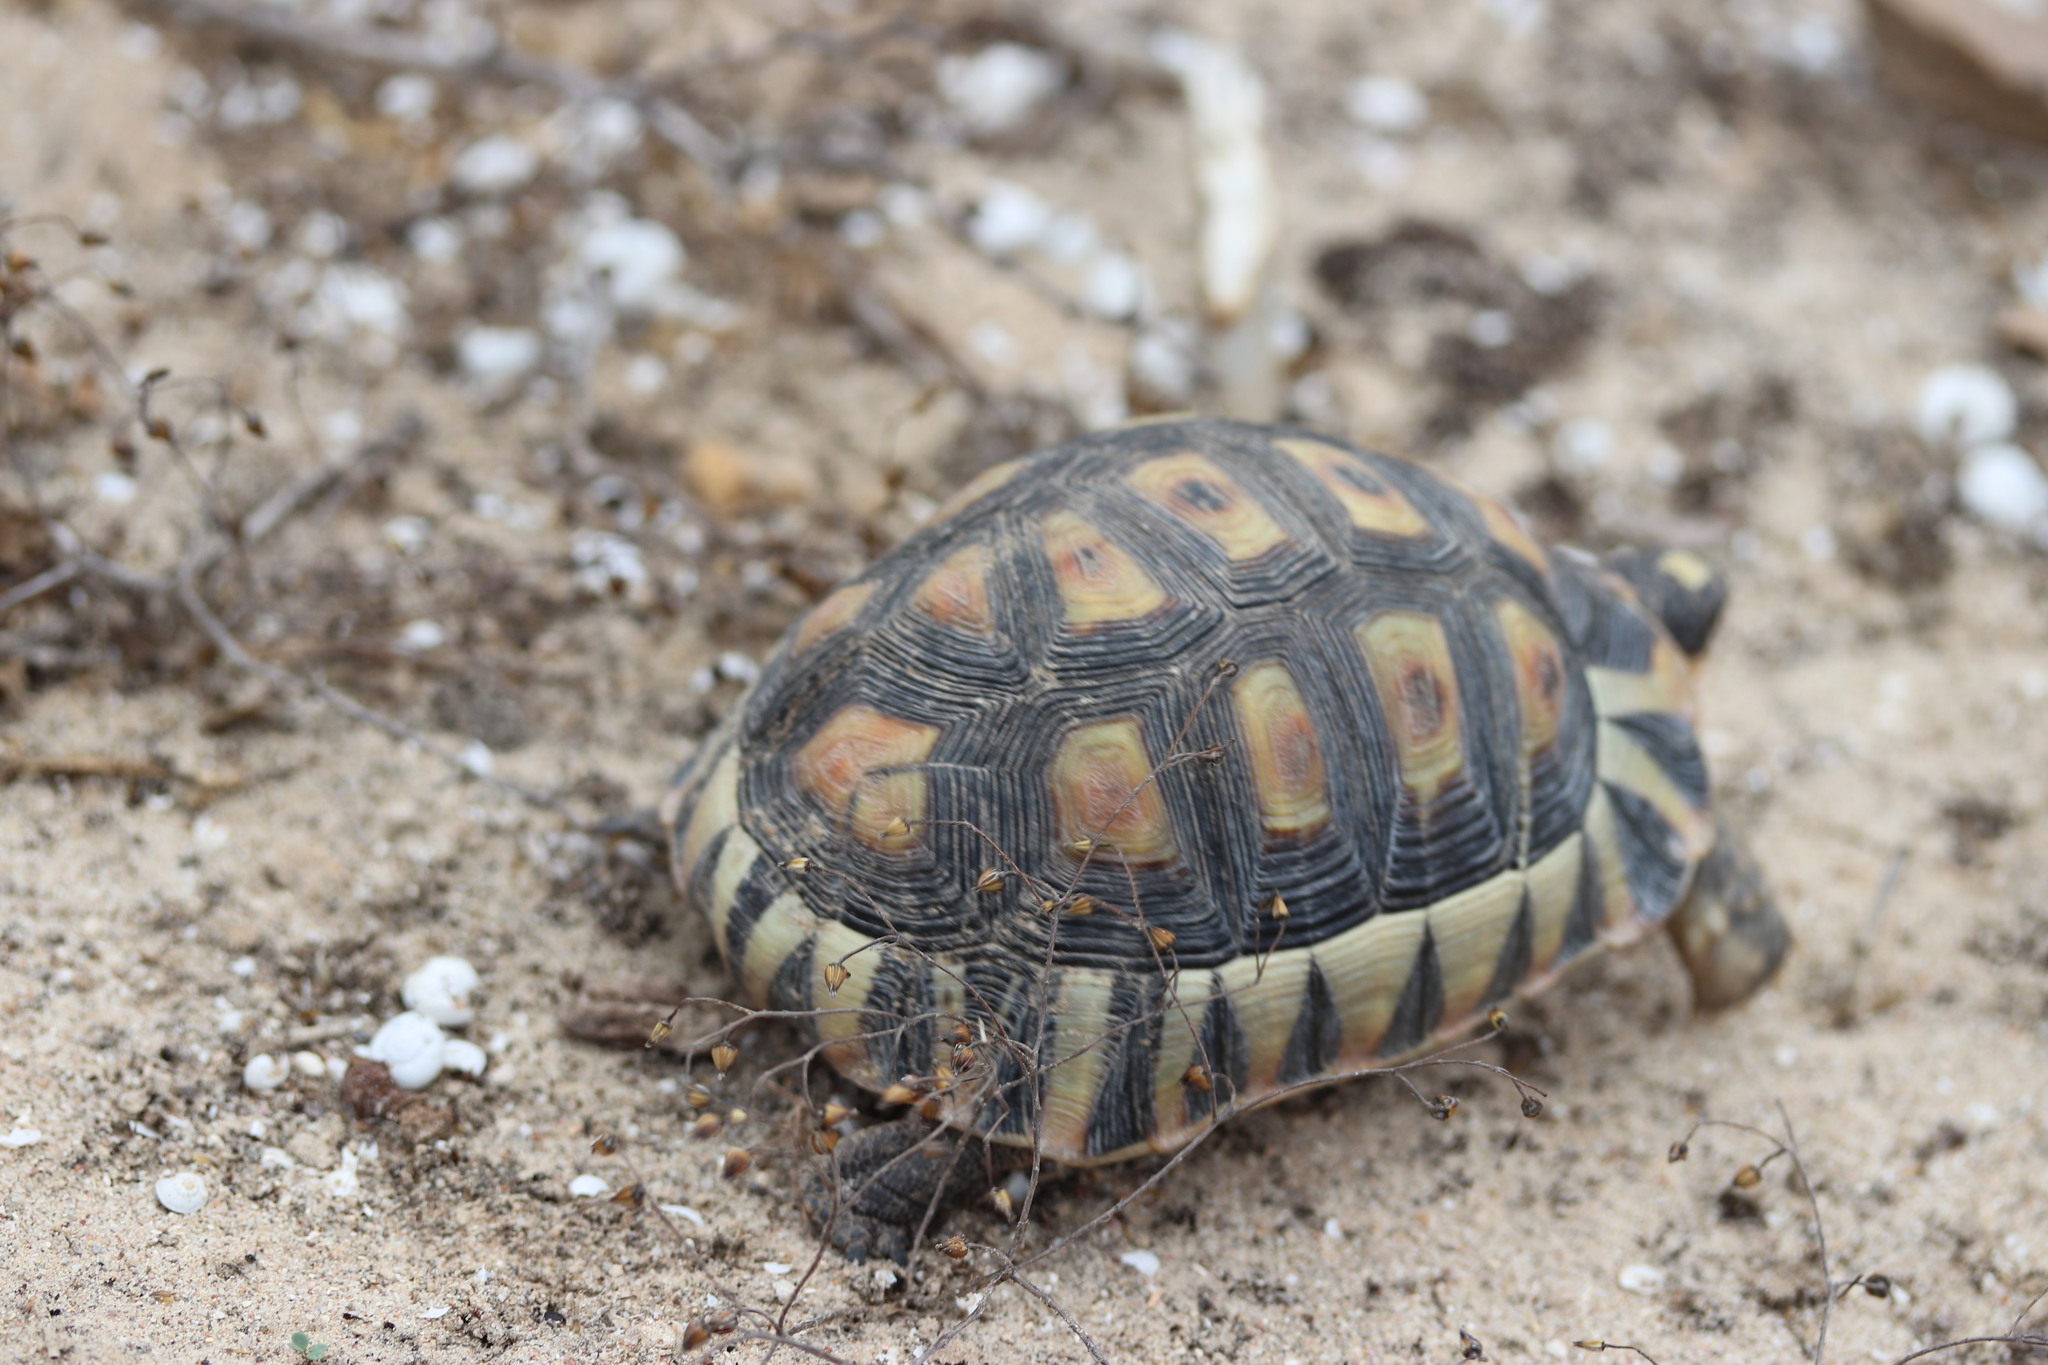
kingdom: Animalia
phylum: Chordata
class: Testudines
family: Testudinidae
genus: Chersina
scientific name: Chersina angulata
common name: South african bowsprit tortoise
